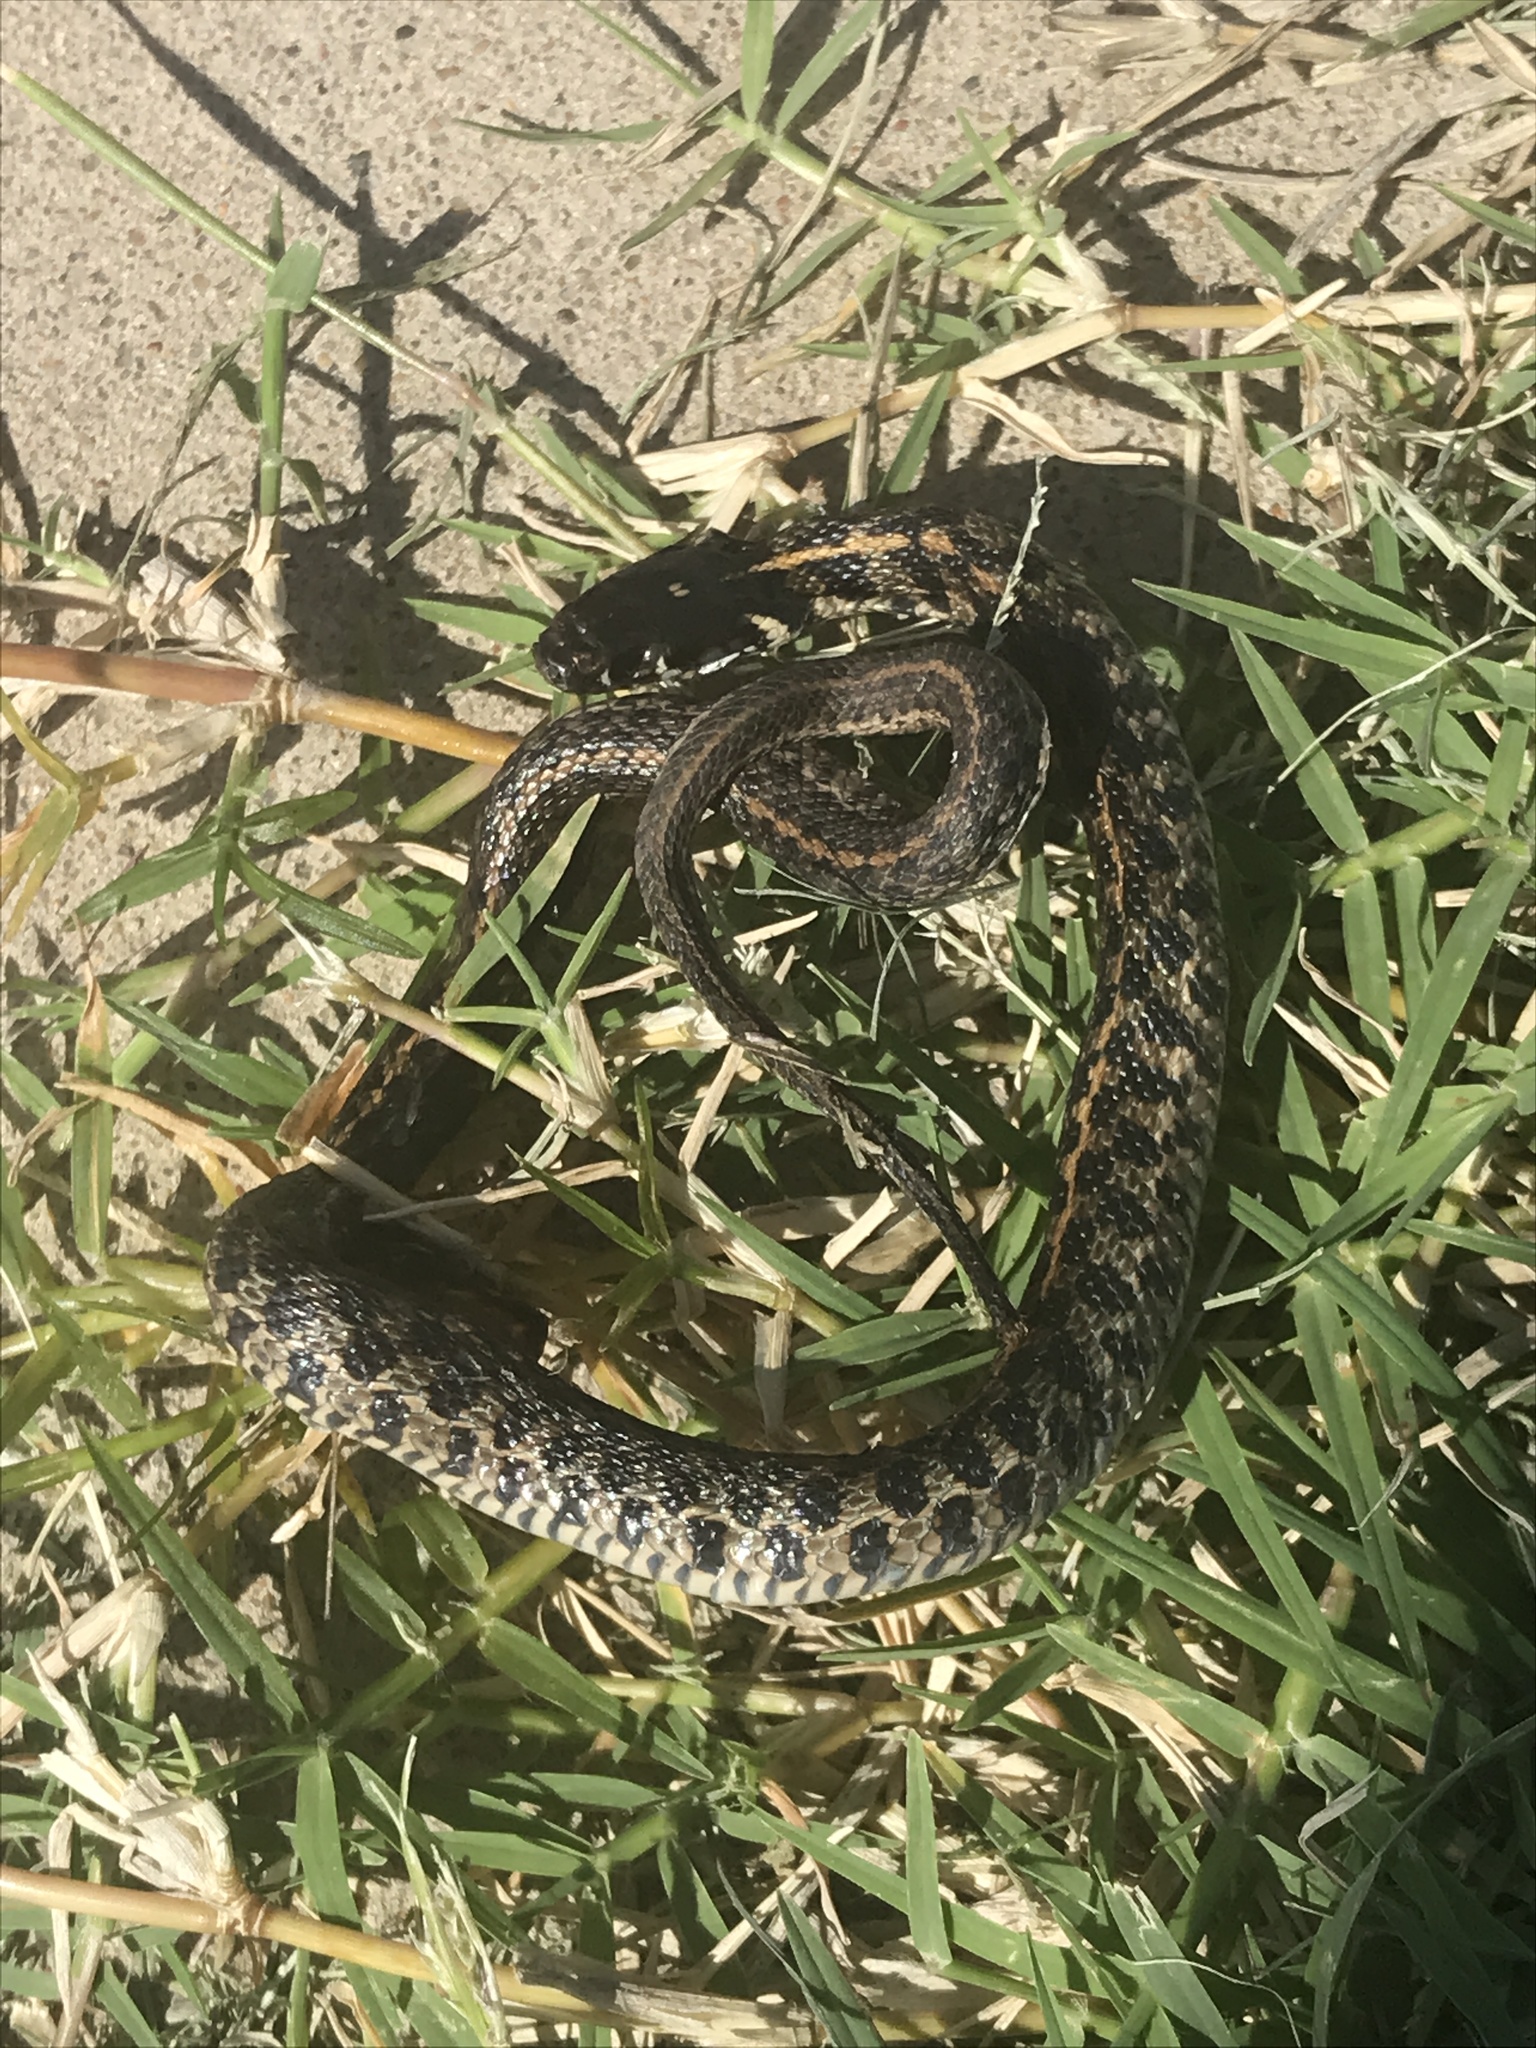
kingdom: Animalia
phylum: Chordata
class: Squamata
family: Colubridae
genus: Thamnophis
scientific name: Thamnophis marcianus
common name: Checkered garter snake
